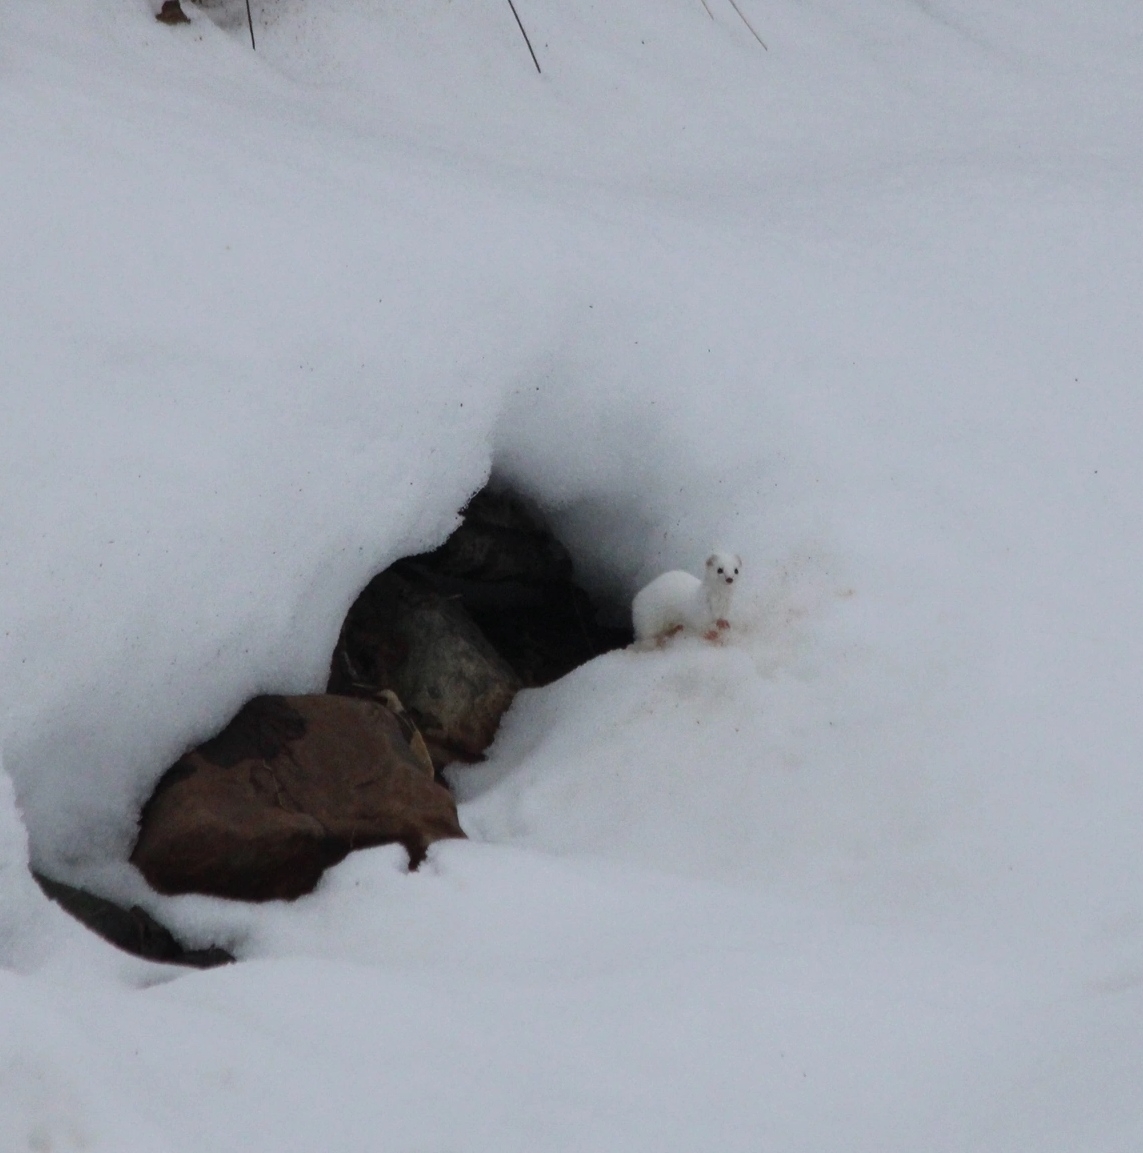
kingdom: Animalia
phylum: Chordata
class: Mammalia
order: Carnivora
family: Mustelidae
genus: Mustela
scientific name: Mustela erminea
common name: Stoat
